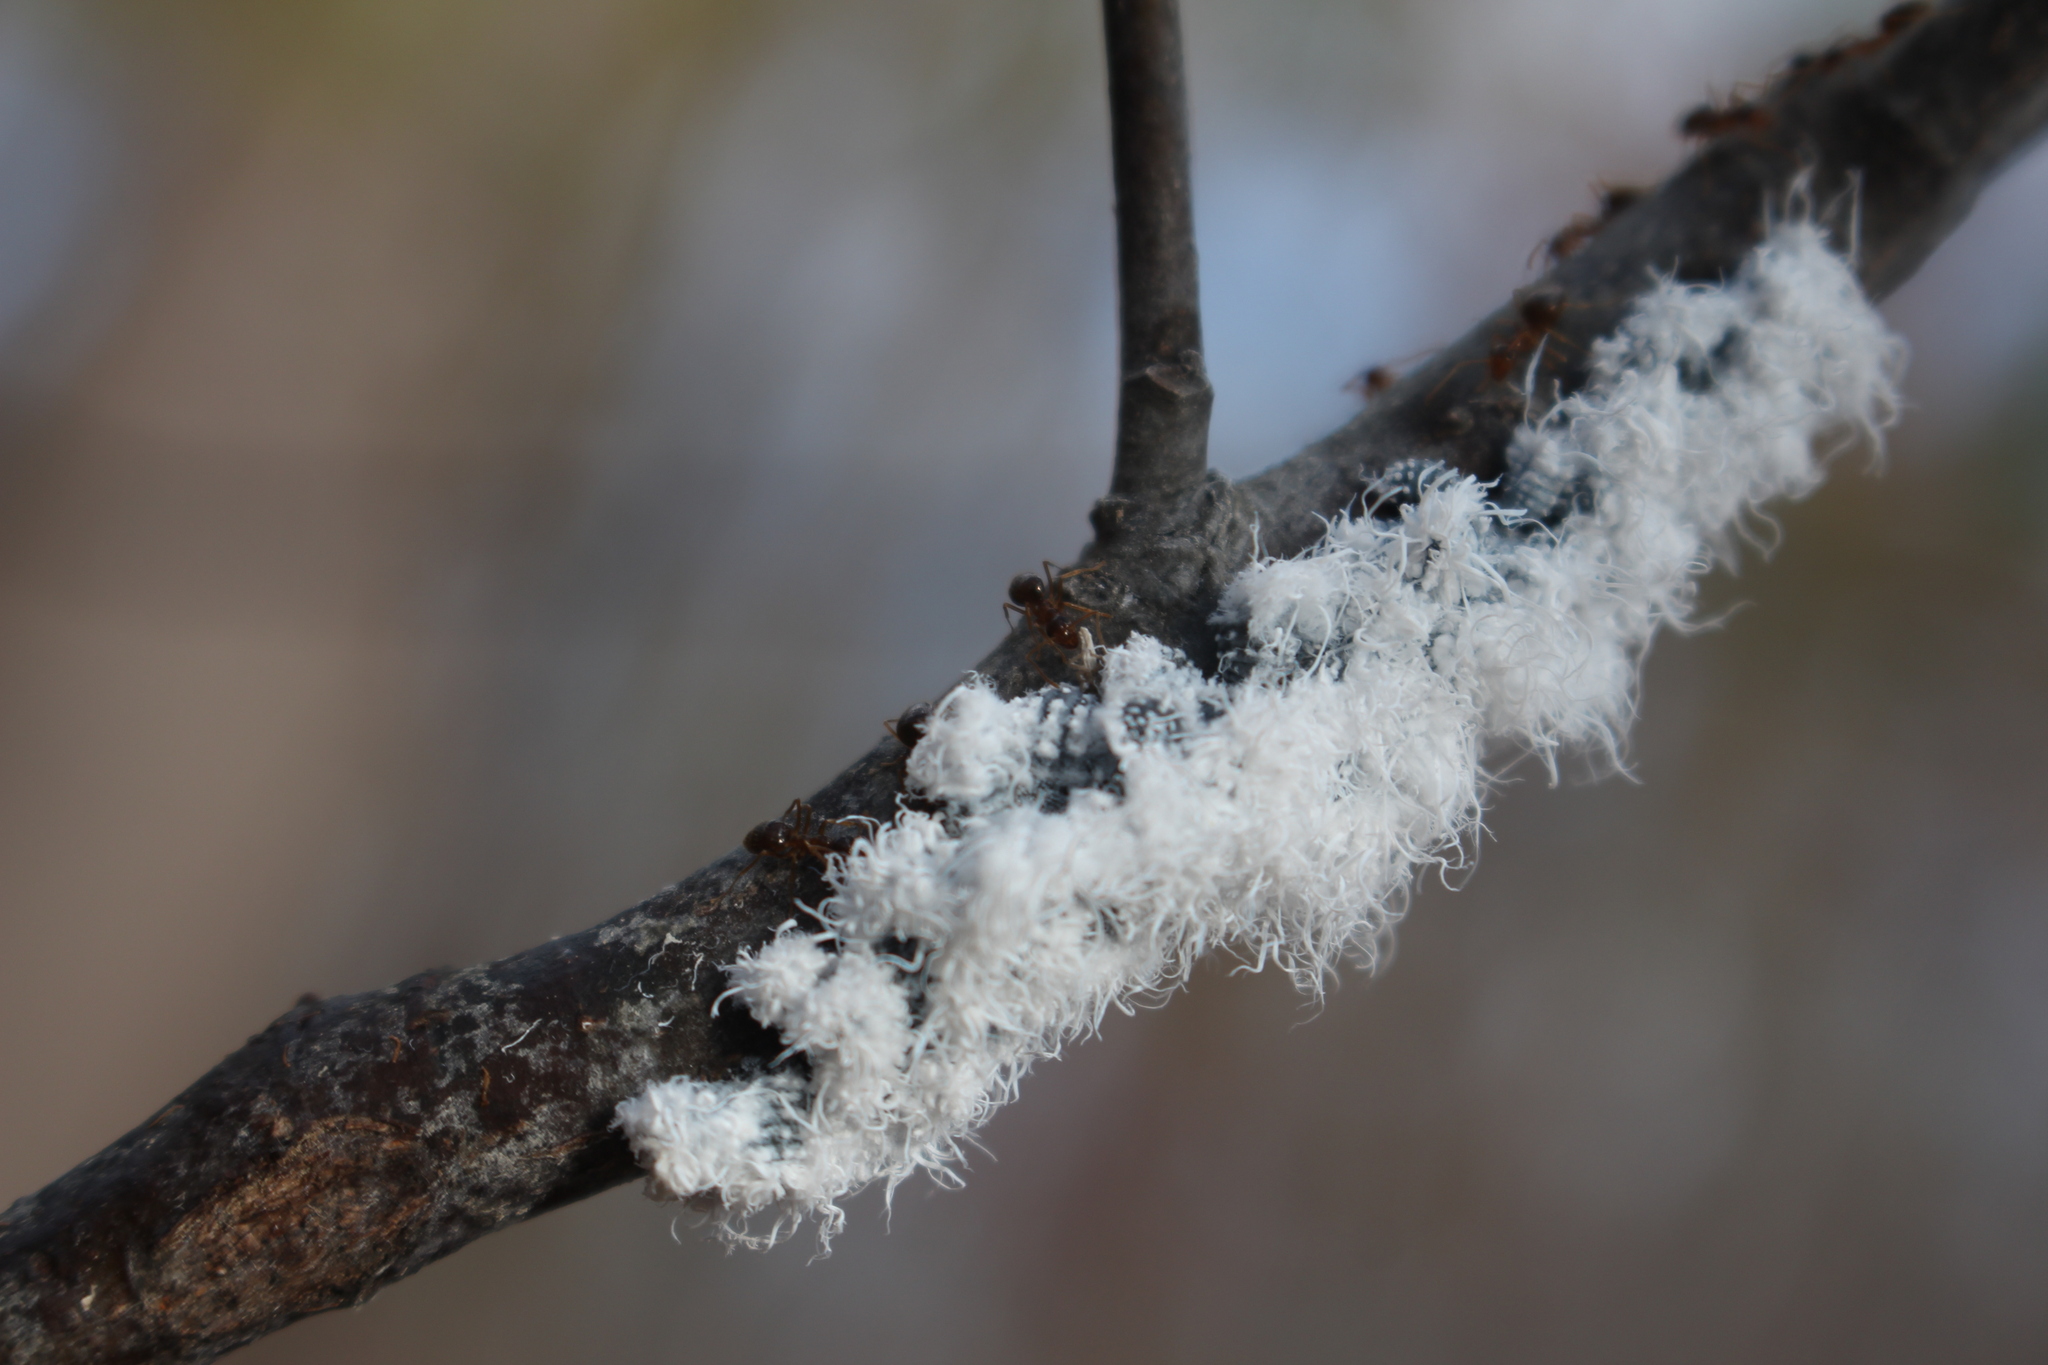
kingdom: Animalia
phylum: Arthropoda
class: Insecta
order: Hemiptera
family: Aphididae
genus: Prociphilus
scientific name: Prociphilus tessellatus
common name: Woolly alder aphid
